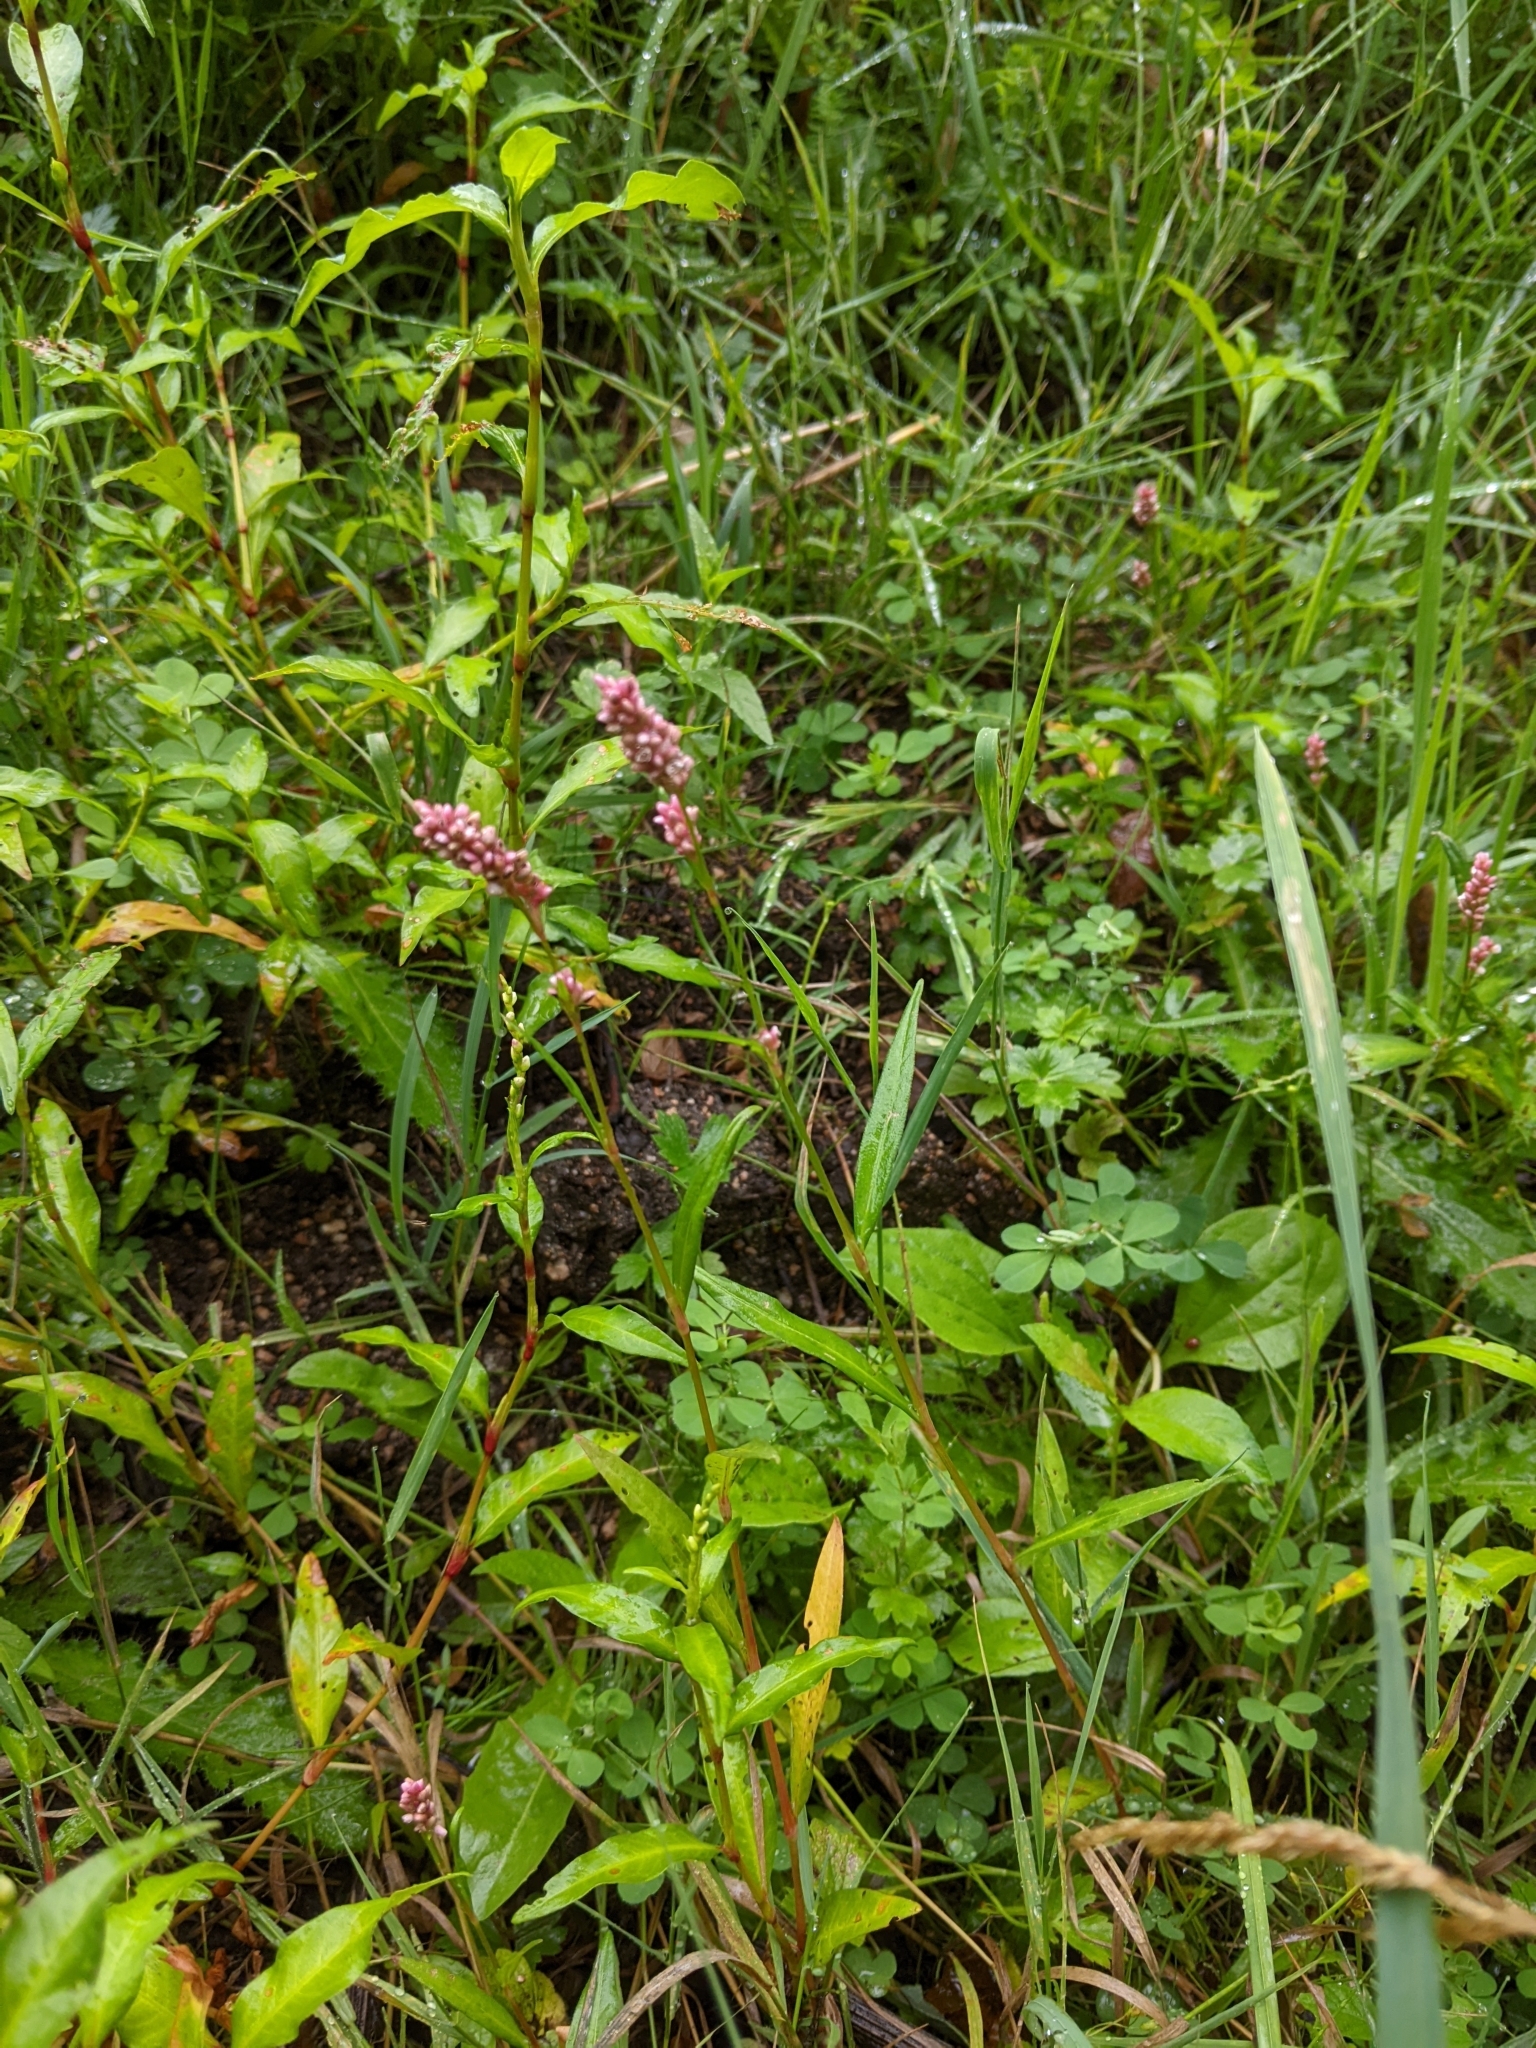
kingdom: Plantae
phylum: Tracheophyta
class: Magnoliopsida
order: Caryophyllales
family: Polygonaceae
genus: Persicaria
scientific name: Persicaria maculosa
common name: Redshank
